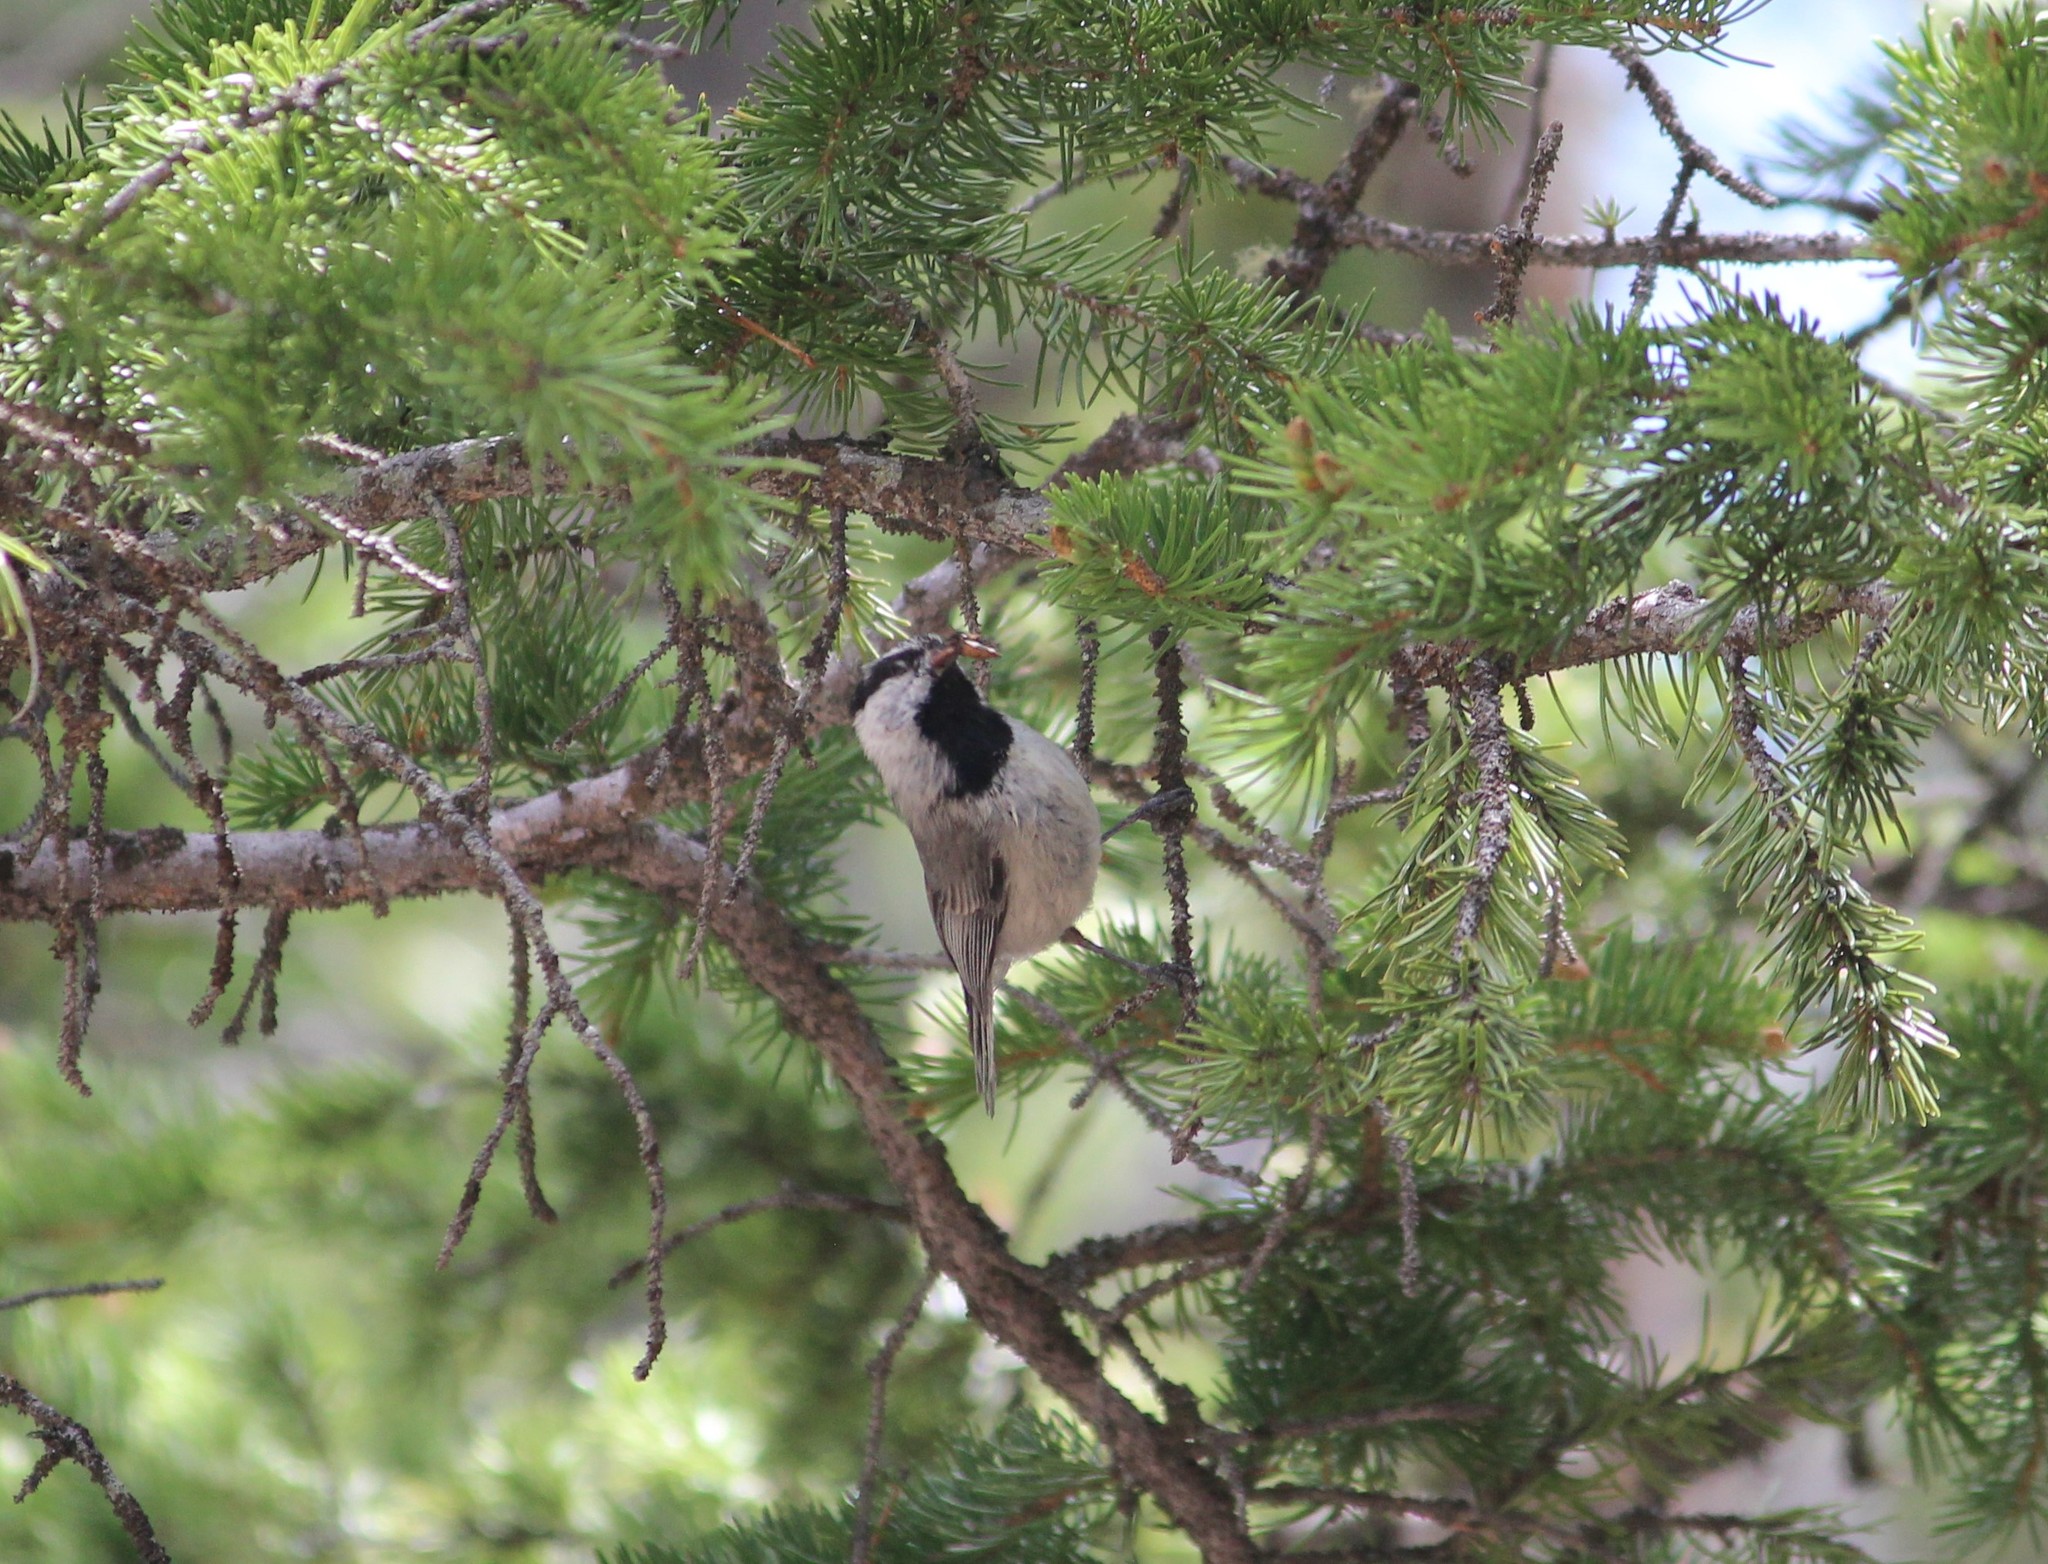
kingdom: Animalia
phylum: Chordata
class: Aves
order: Passeriformes
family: Paridae
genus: Poecile
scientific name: Poecile gambeli
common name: Mountain chickadee
